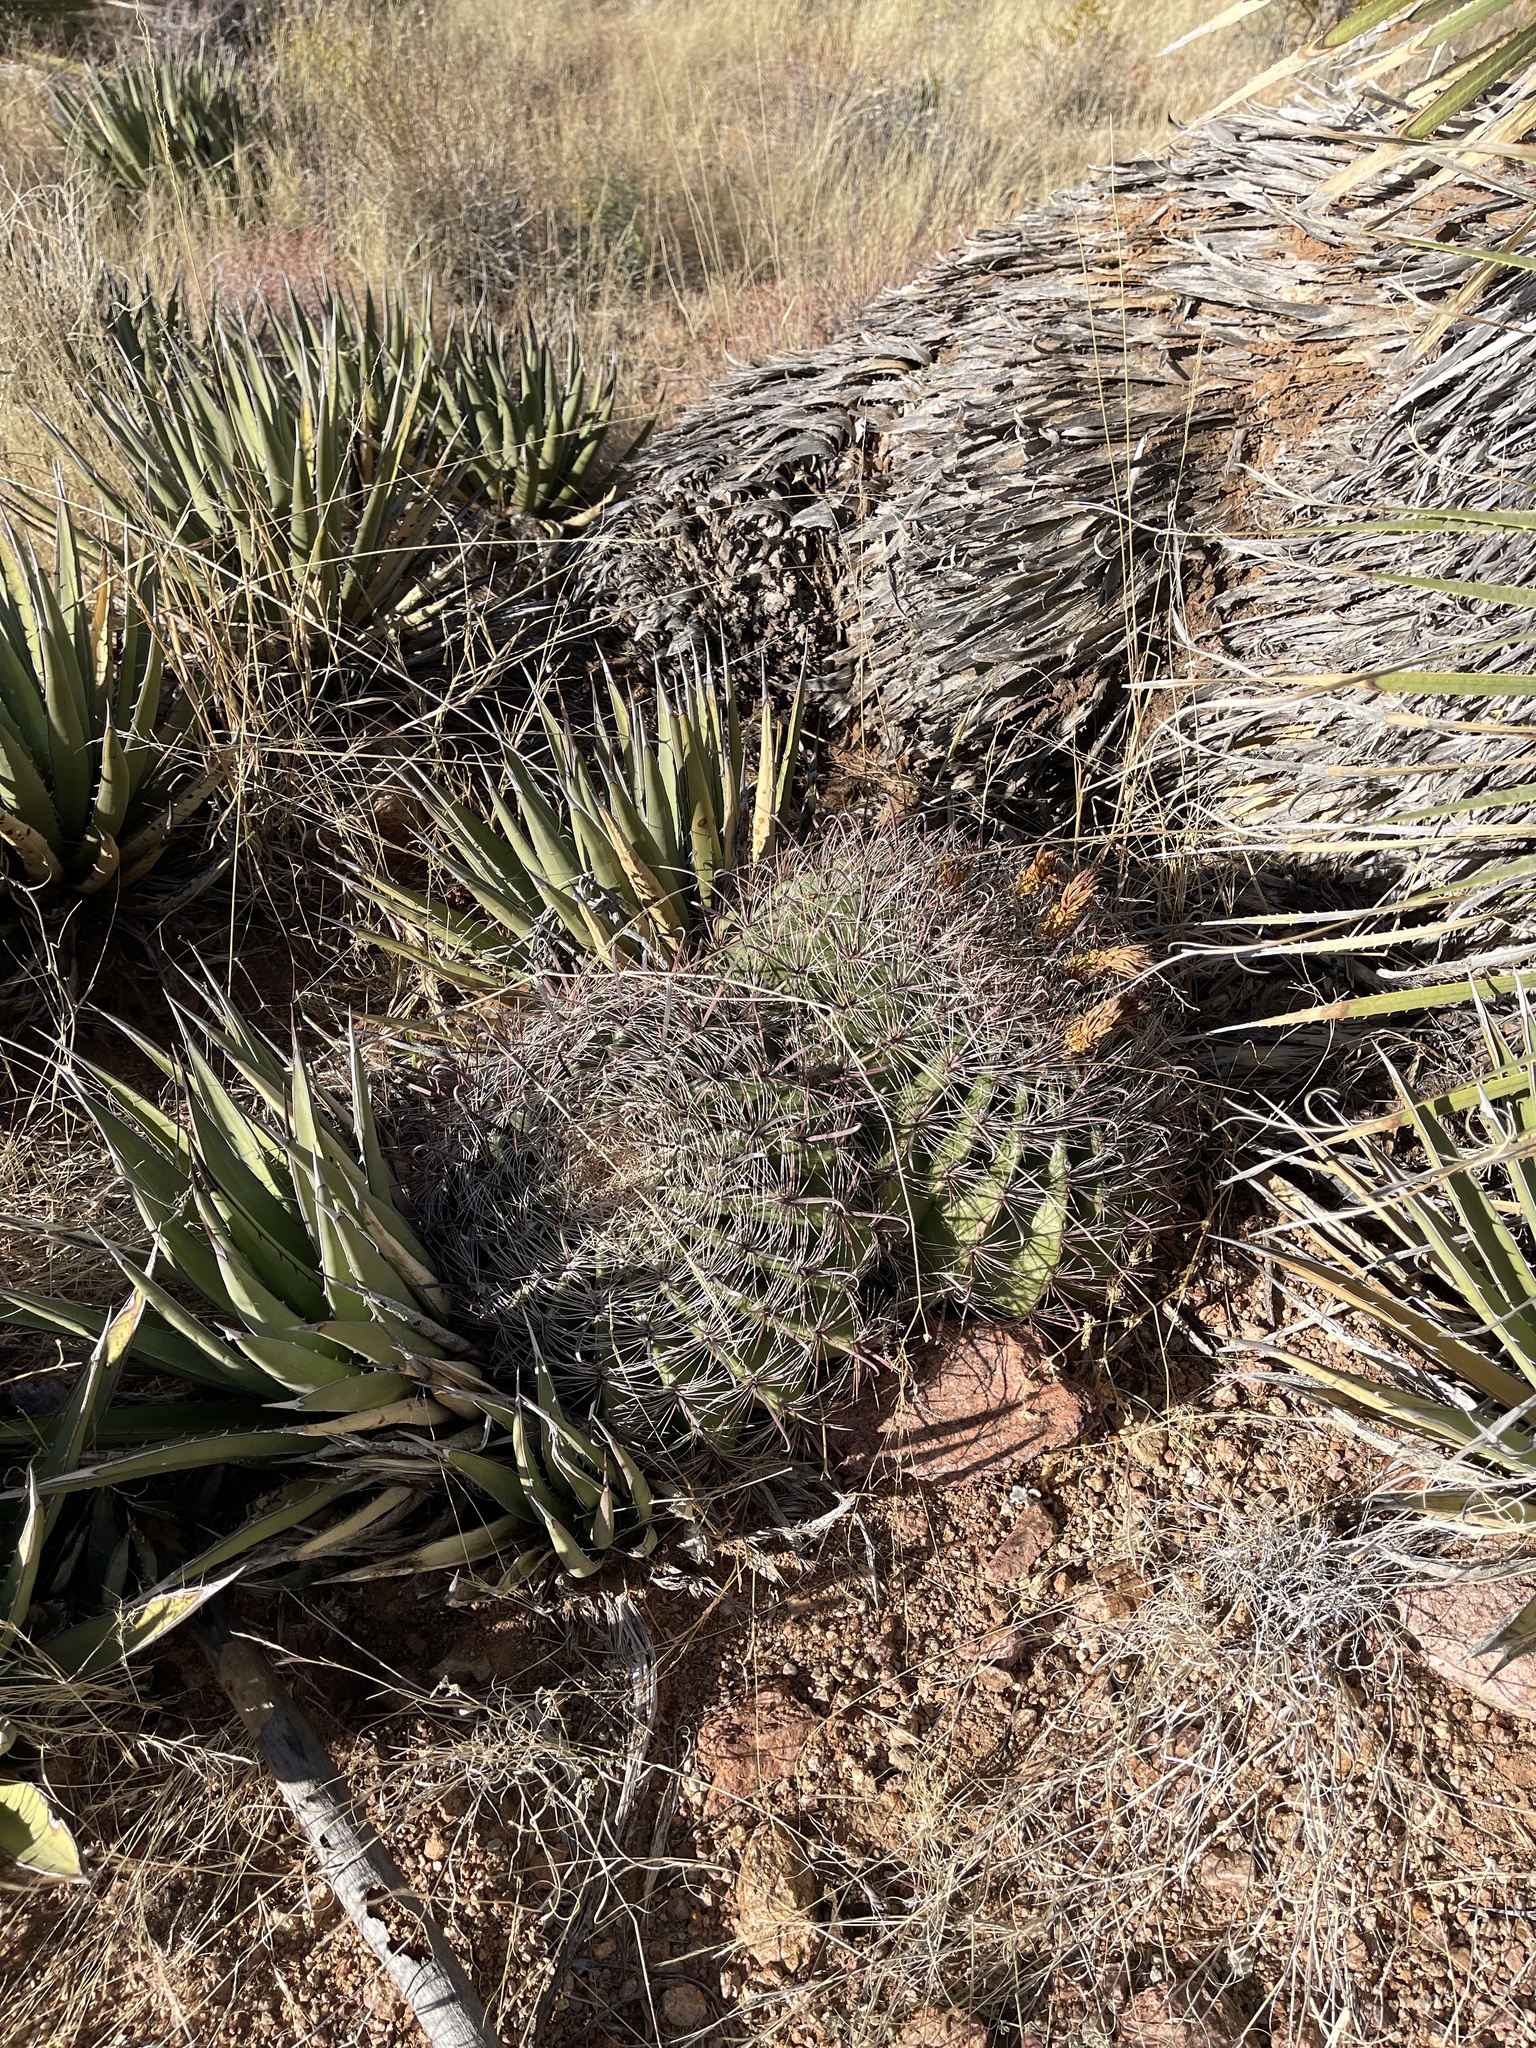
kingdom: Plantae
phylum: Tracheophyta
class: Magnoliopsida
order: Caryophyllales
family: Cactaceae
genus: Ferocactus
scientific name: Ferocactus wislizeni
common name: Candy barrel cactus
